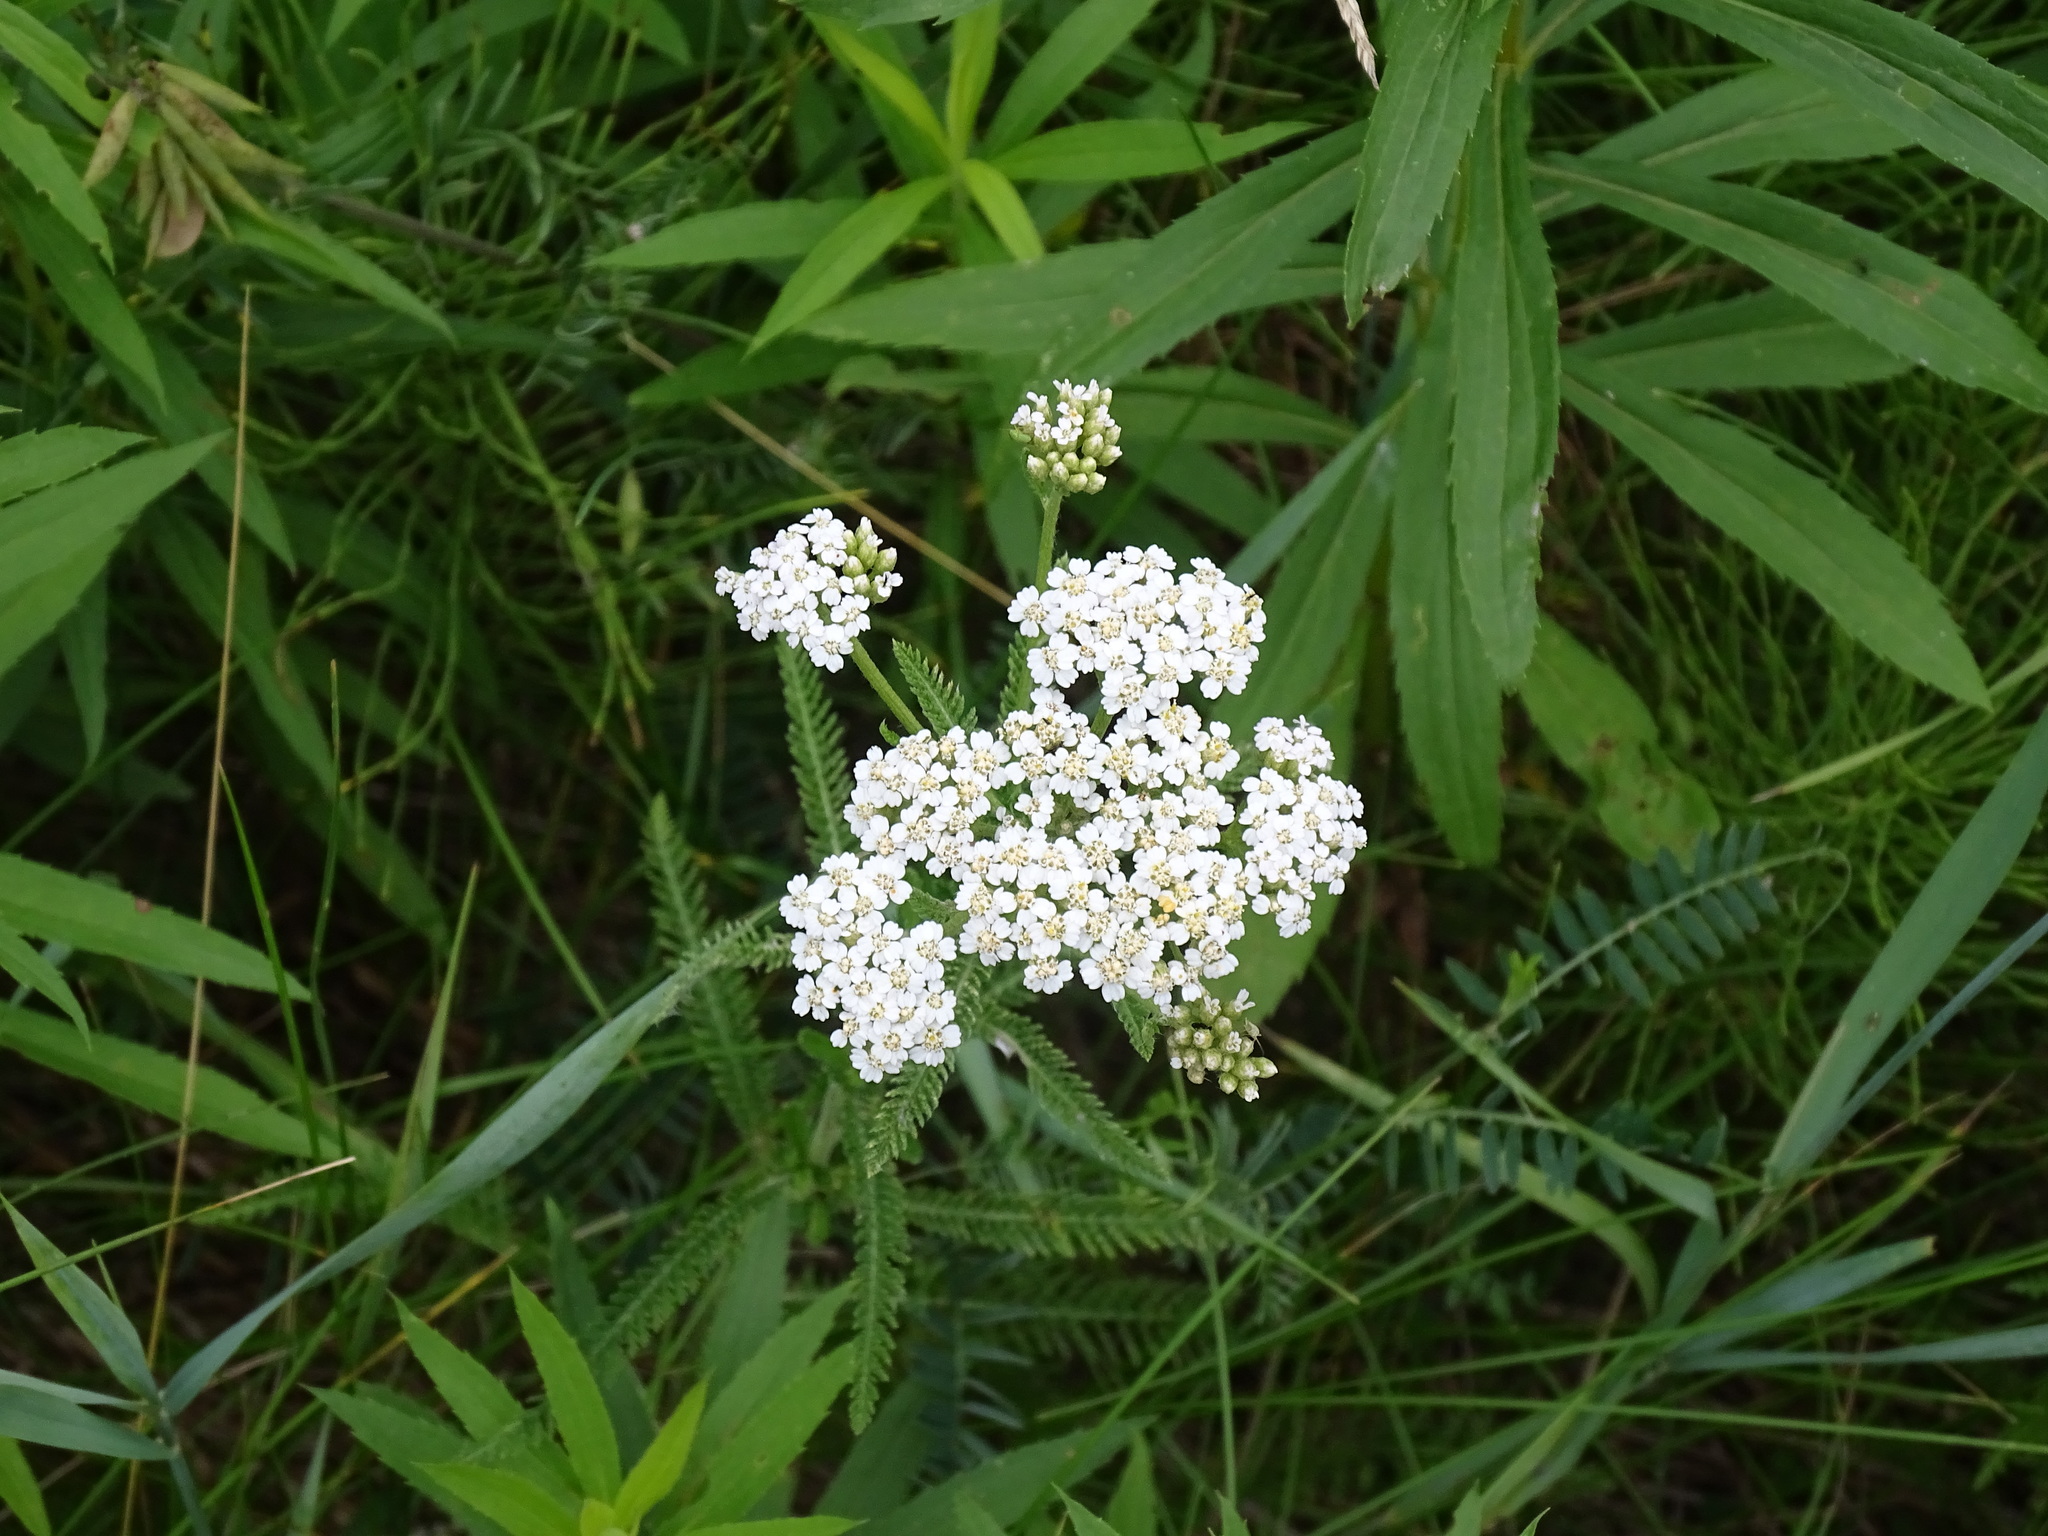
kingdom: Plantae
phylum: Tracheophyta
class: Magnoliopsida
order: Asterales
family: Asteraceae
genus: Achillea
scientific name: Achillea millefolium
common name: Yarrow
